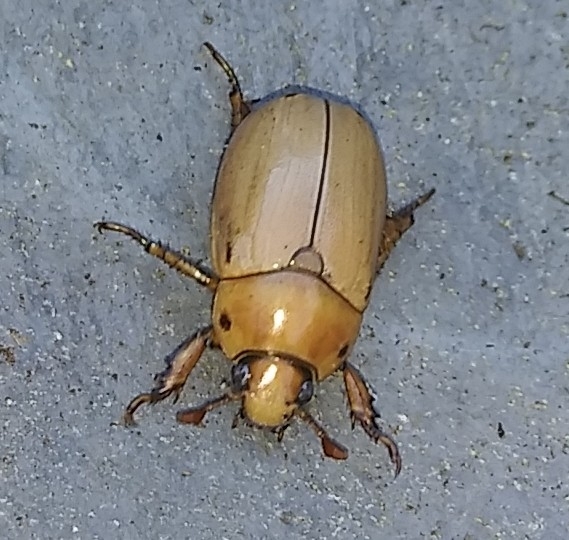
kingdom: Animalia
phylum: Arthropoda
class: Insecta
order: Coleoptera
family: Scarabaeidae
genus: Pelidnota
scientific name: Pelidnota punctata
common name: Grapevine beetle
